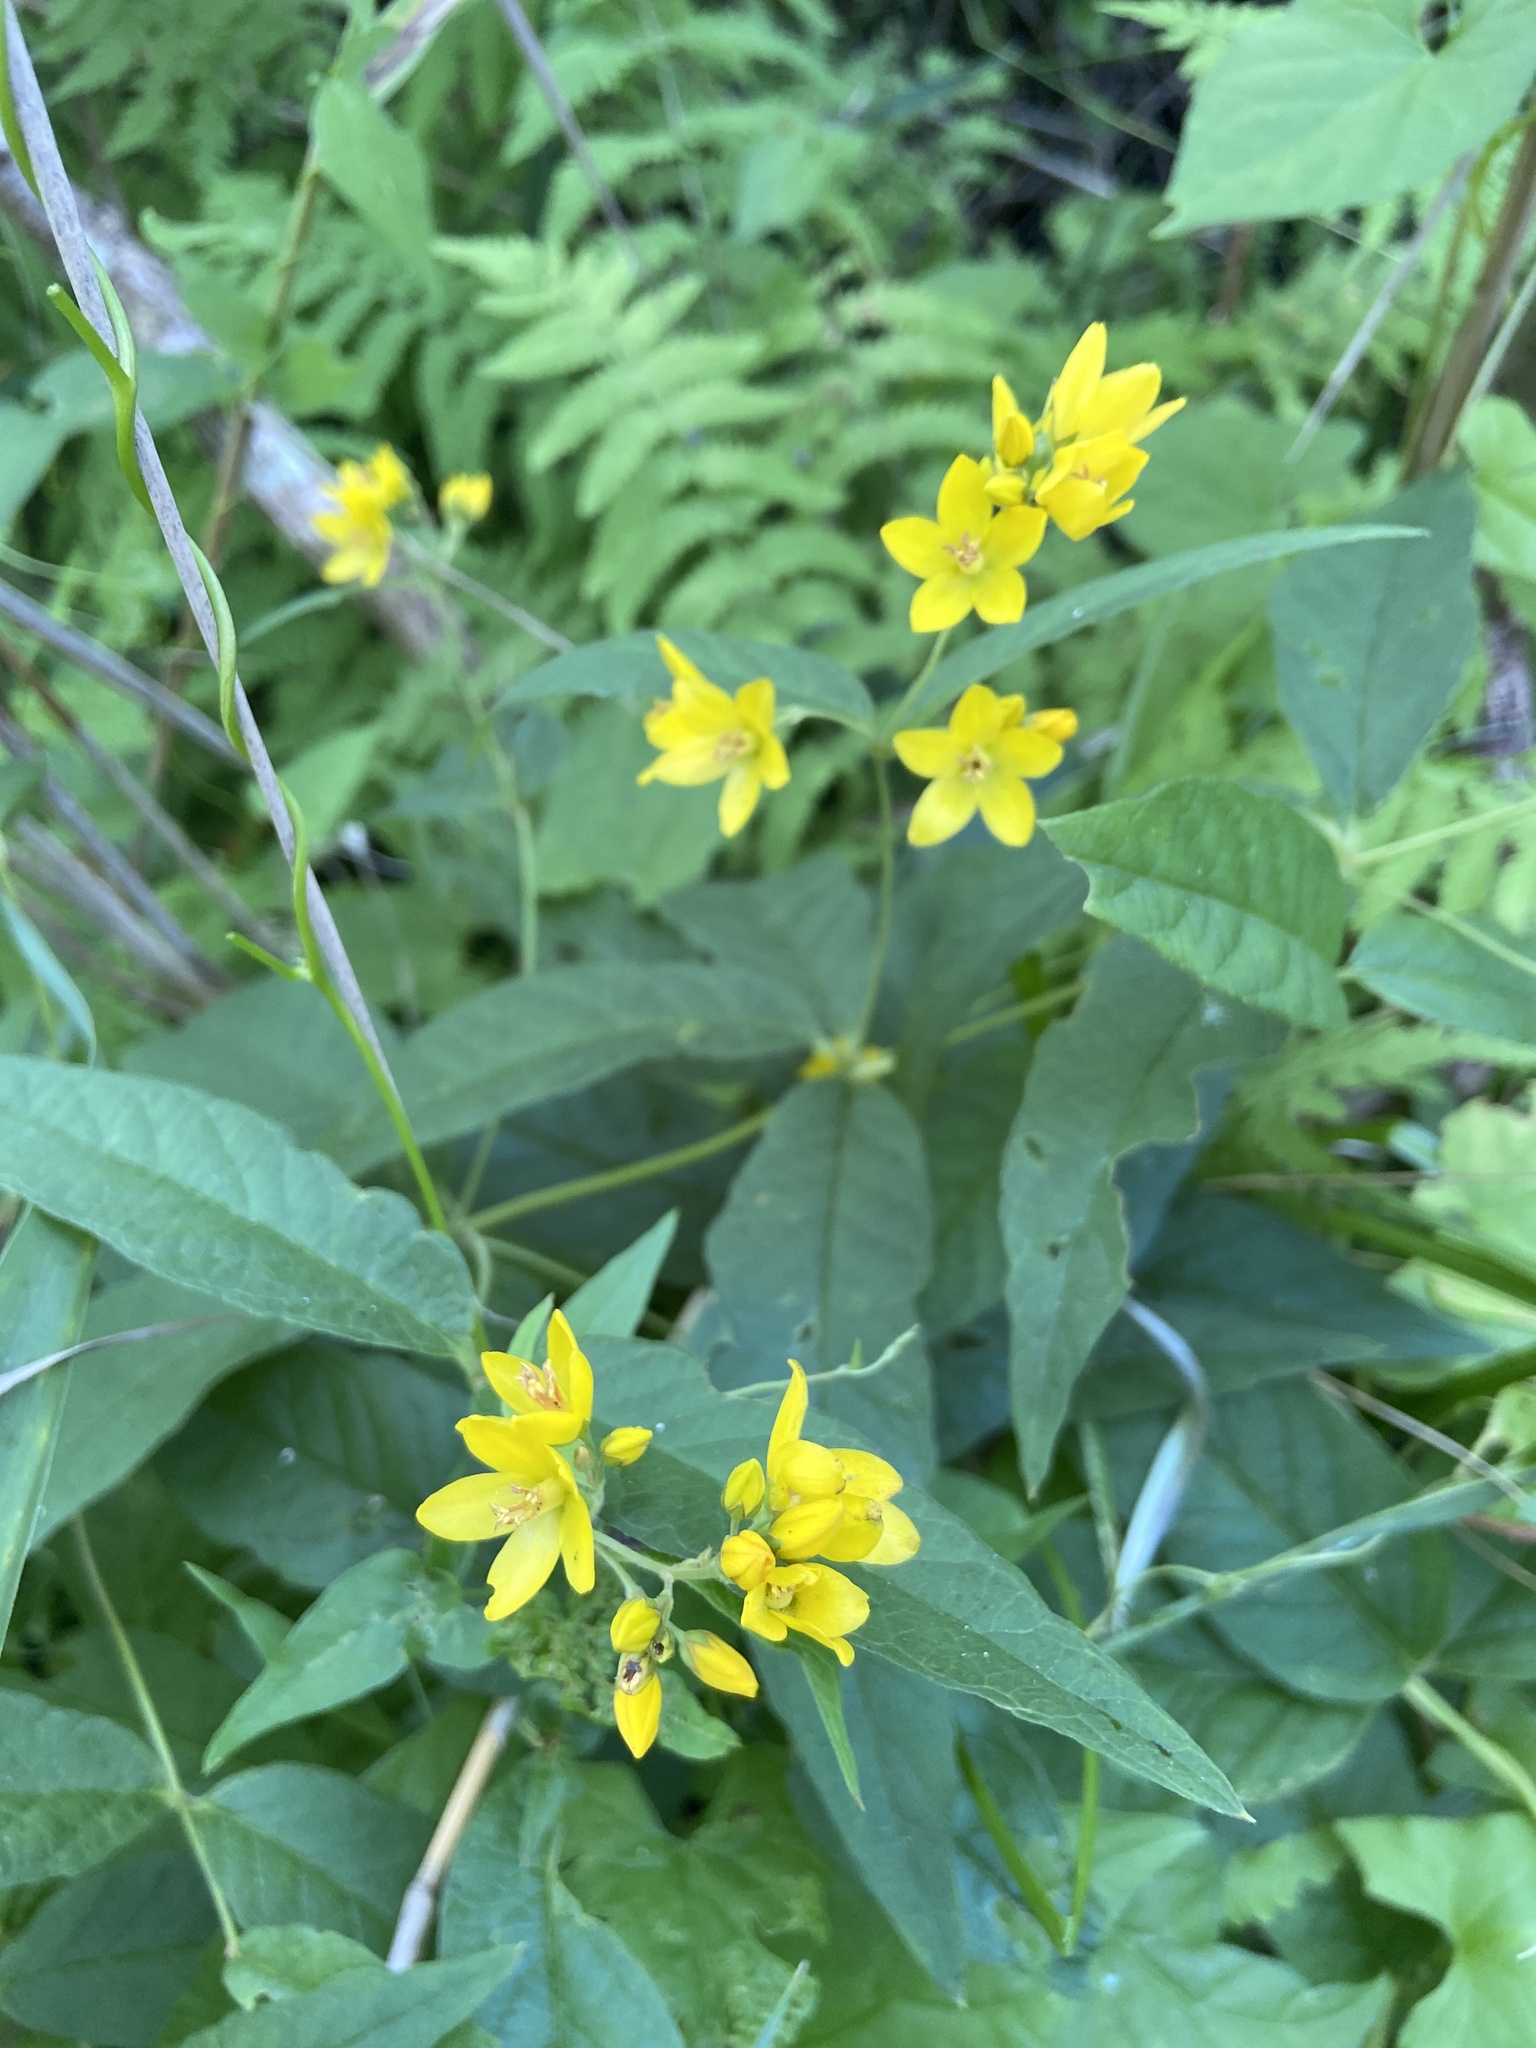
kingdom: Plantae
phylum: Tracheophyta
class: Magnoliopsida
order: Ericales
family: Primulaceae
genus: Lysimachia
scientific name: Lysimachia vulgaris
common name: Yellow loosestrife
